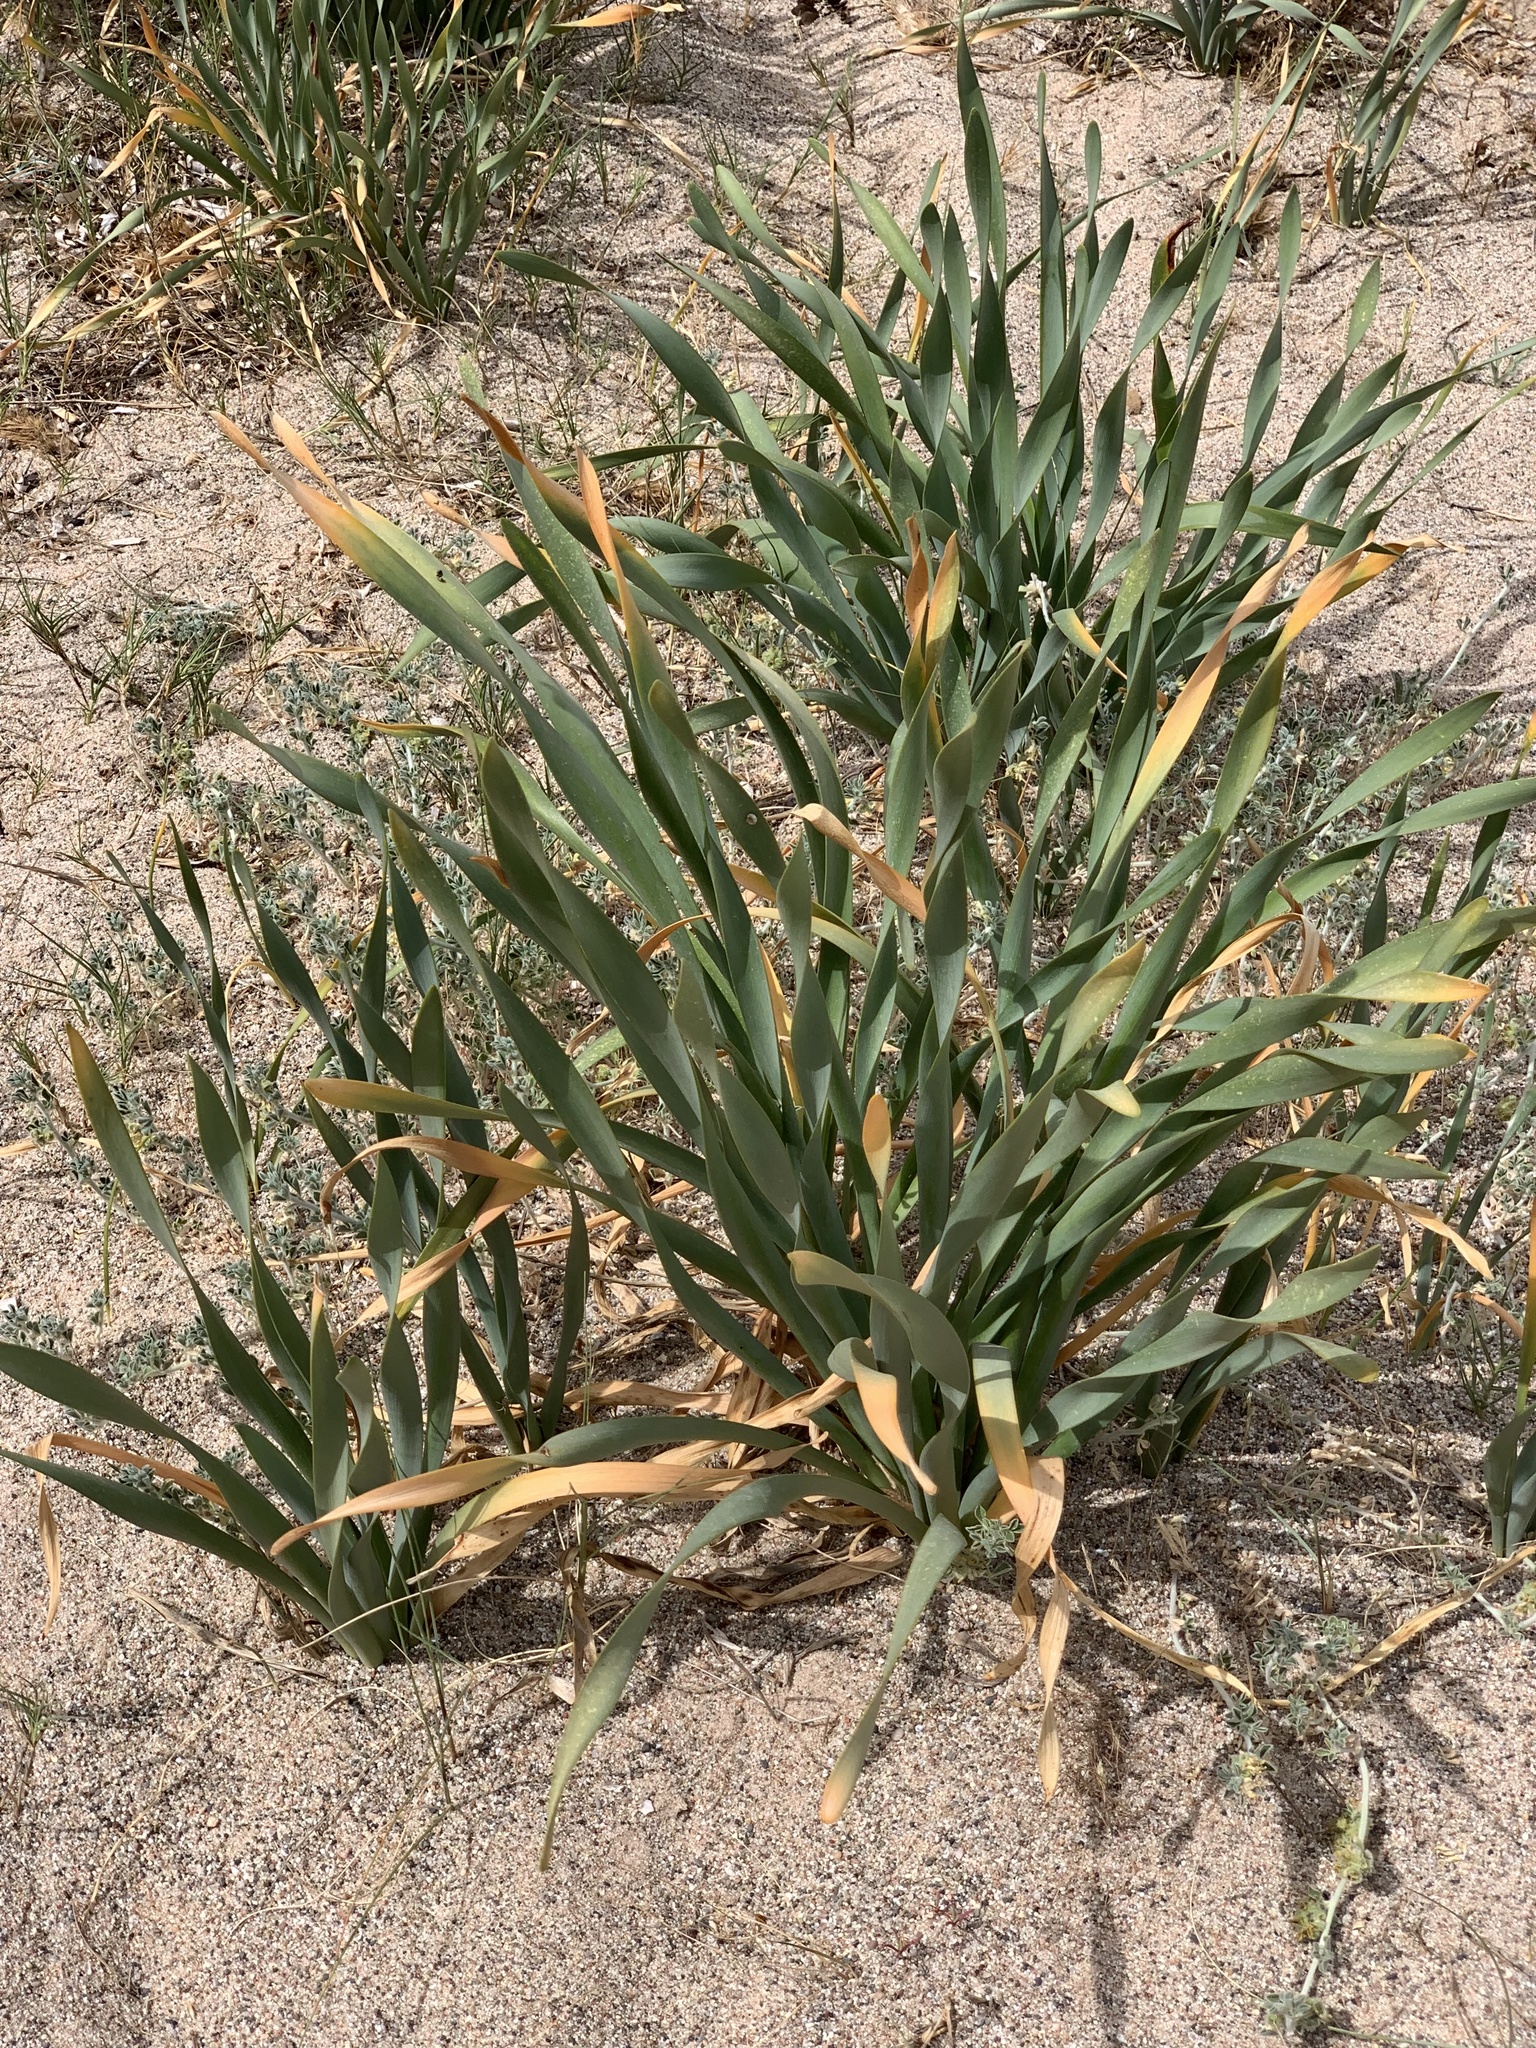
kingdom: Plantae
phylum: Tracheophyta
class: Liliopsida
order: Asparagales
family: Amaryllidaceae
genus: Pancratium
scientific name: Pancratium maritimum
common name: Sea-daffodil
